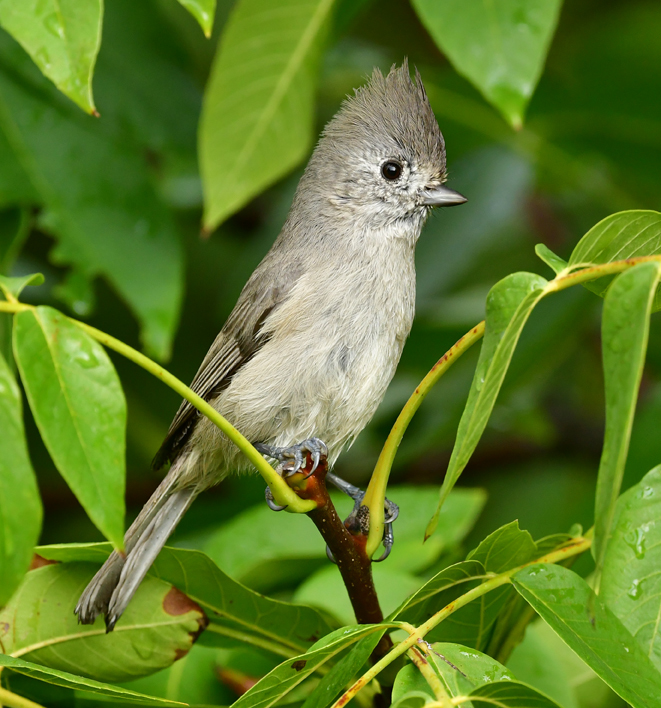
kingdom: Animalia
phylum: Chordata
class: Aves
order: Passeriformes
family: Paridae
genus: Baeolophus
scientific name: Baeolophus inornatus
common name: Oak titmouse
